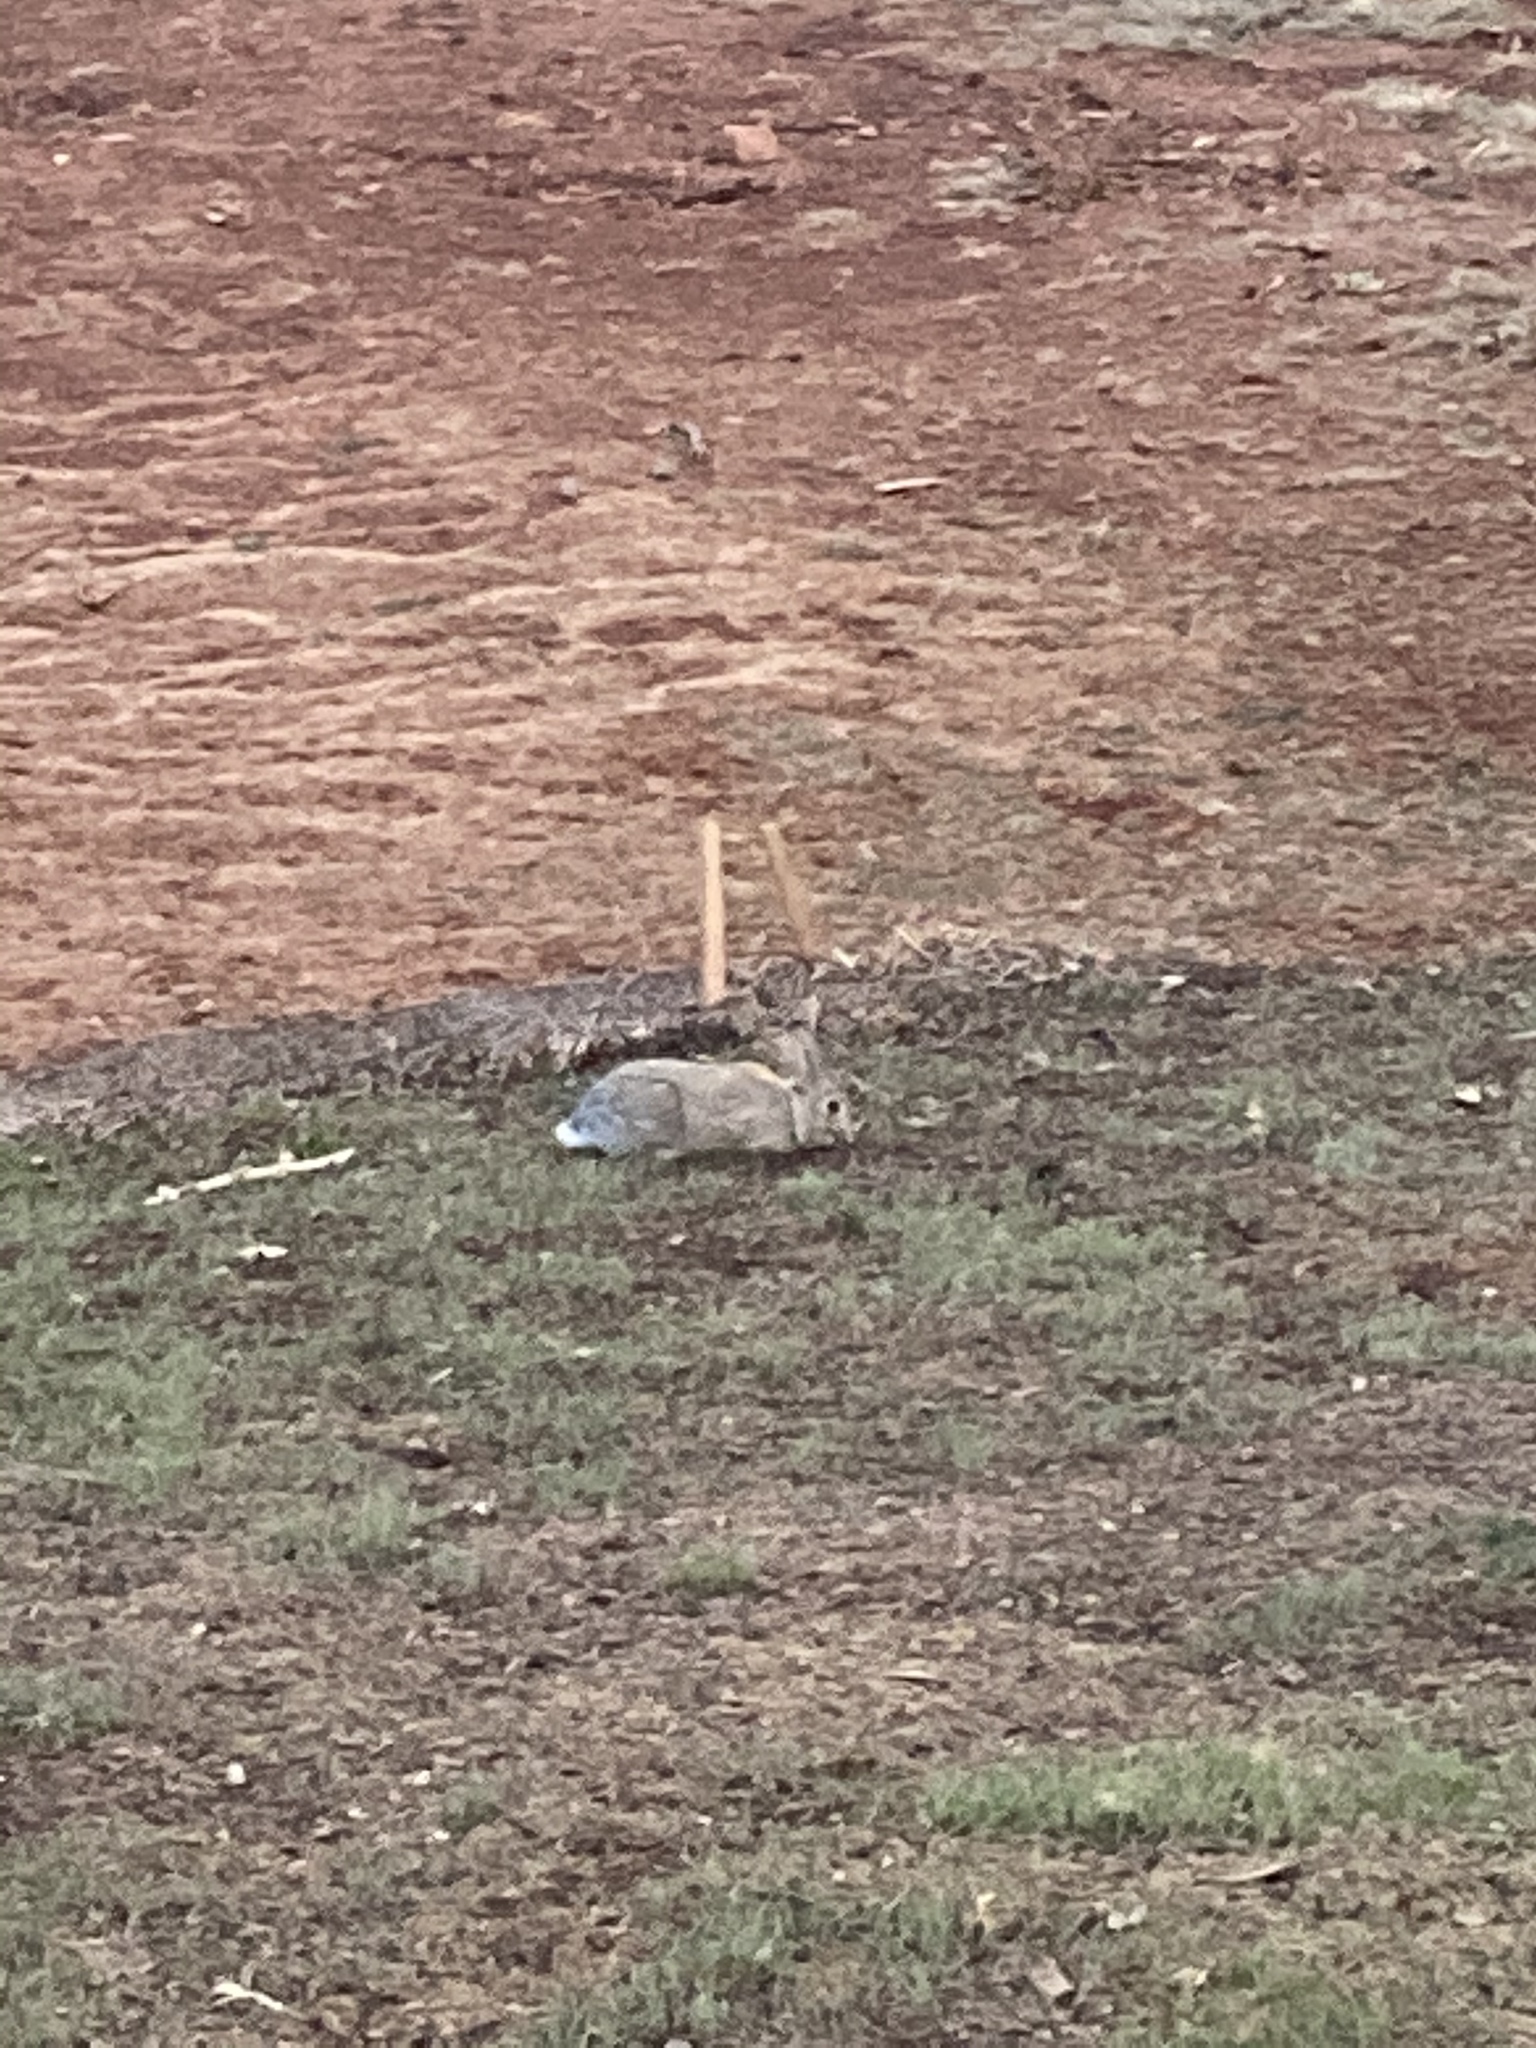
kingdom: Animalia
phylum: Chordata
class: Mammalia
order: Lagomorpha
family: Leporidae
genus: Sylvilagus
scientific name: Sylvilagus audubonii
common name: Desert cottontail
